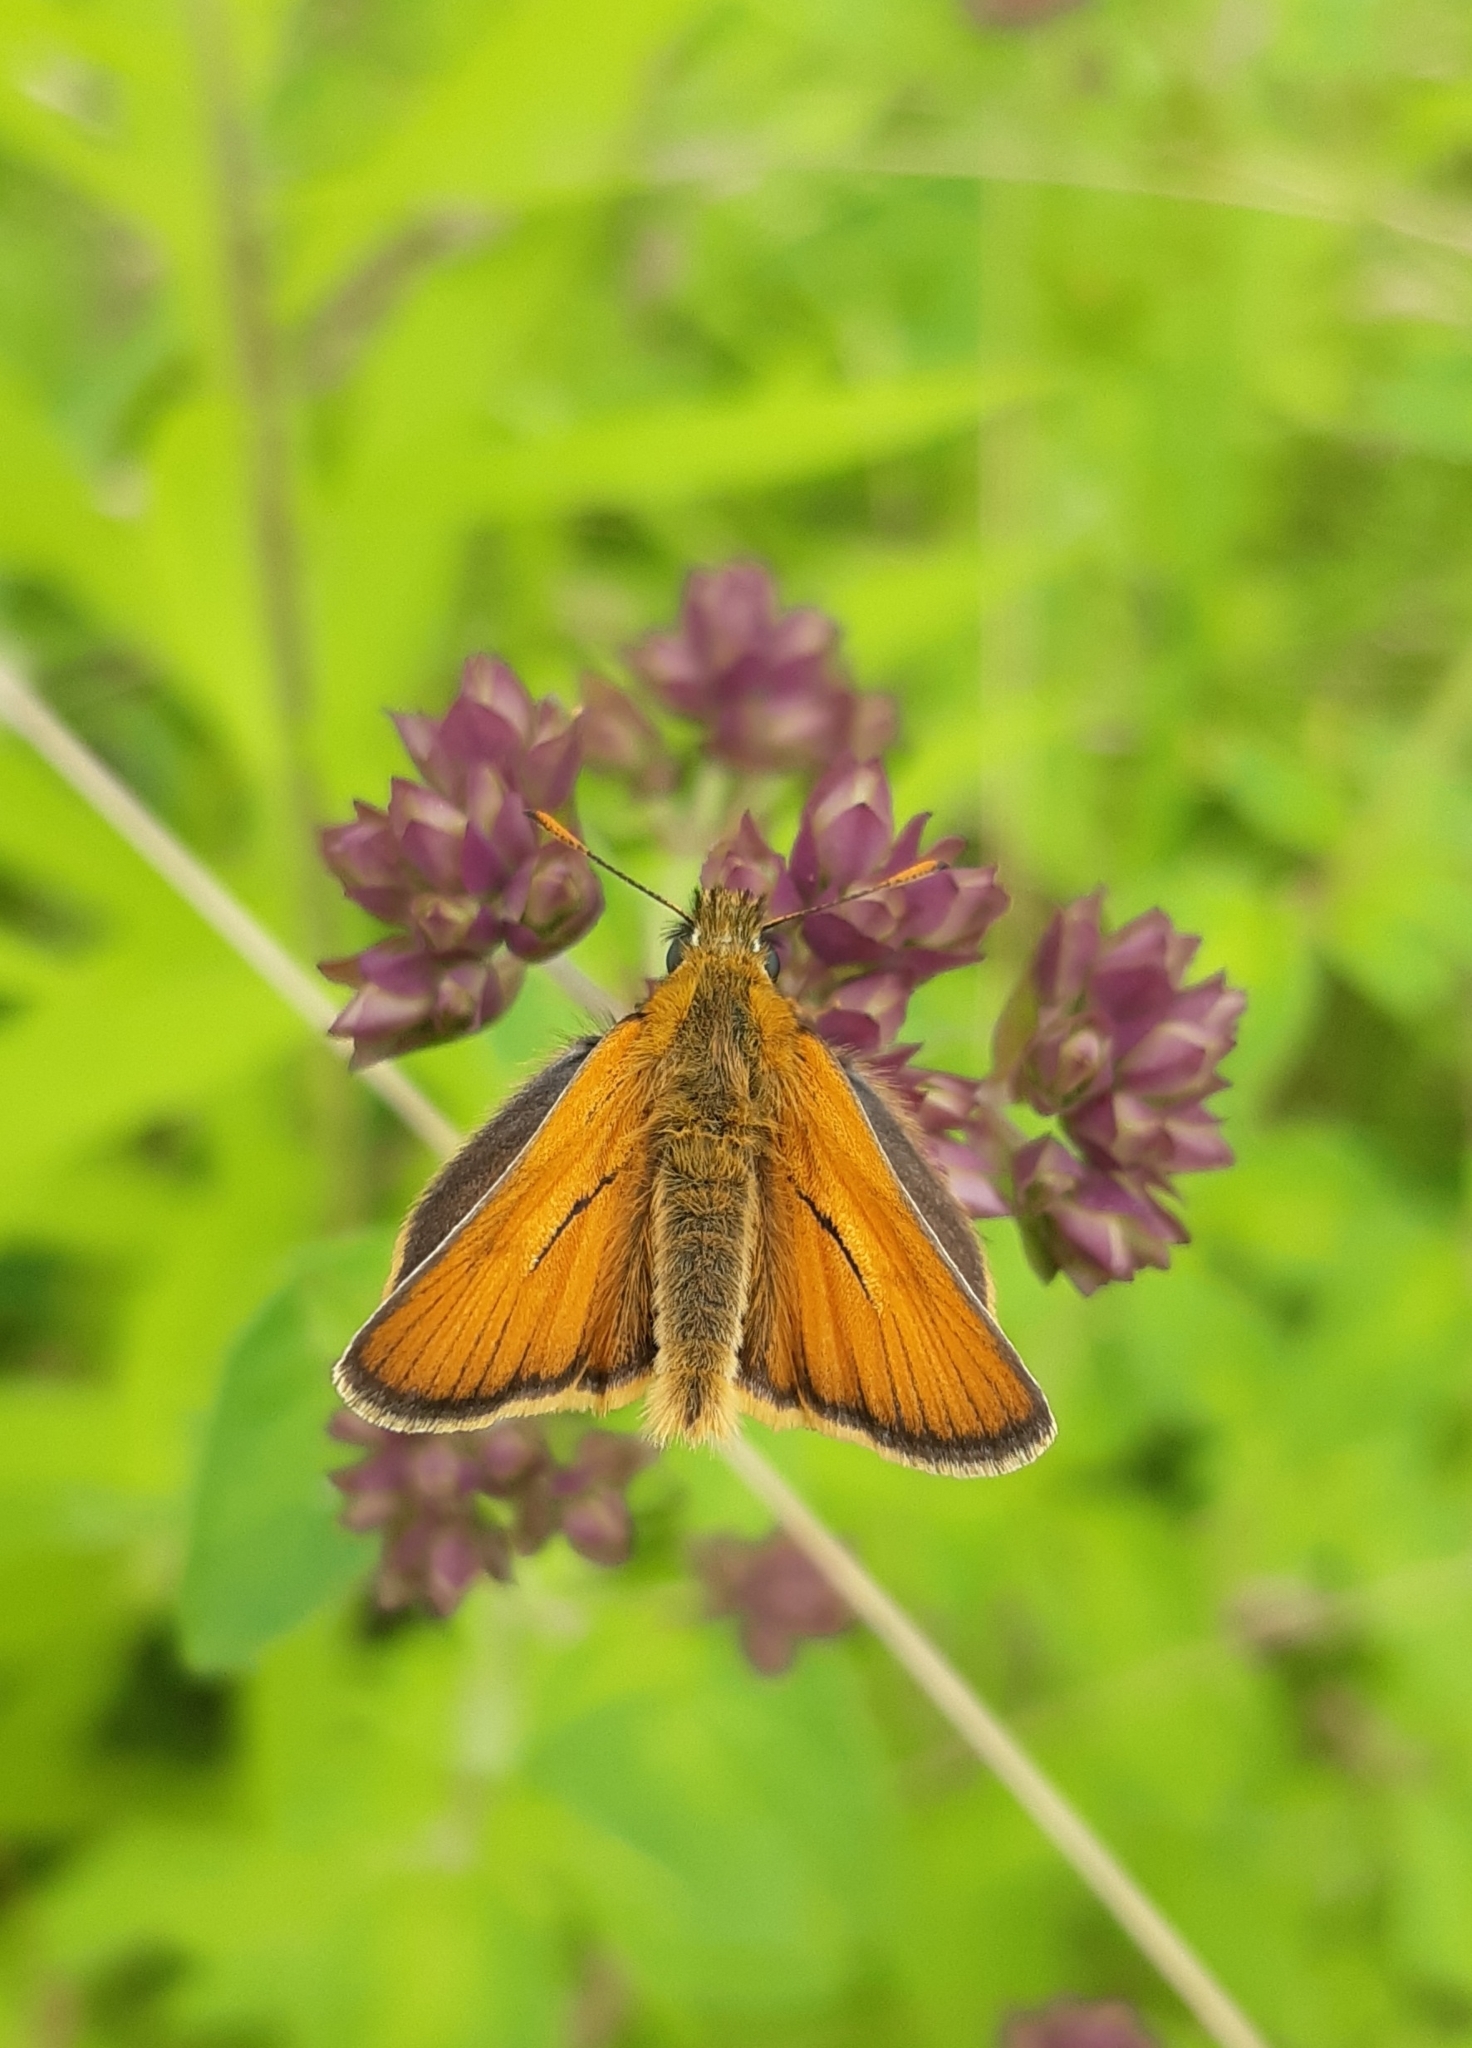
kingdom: Animalia
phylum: Arthropoda
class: Insecta
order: Lepidoptera
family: Hesperiidae
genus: Thymelicus
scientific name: Thymelicus sylvestris
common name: Small skipper
